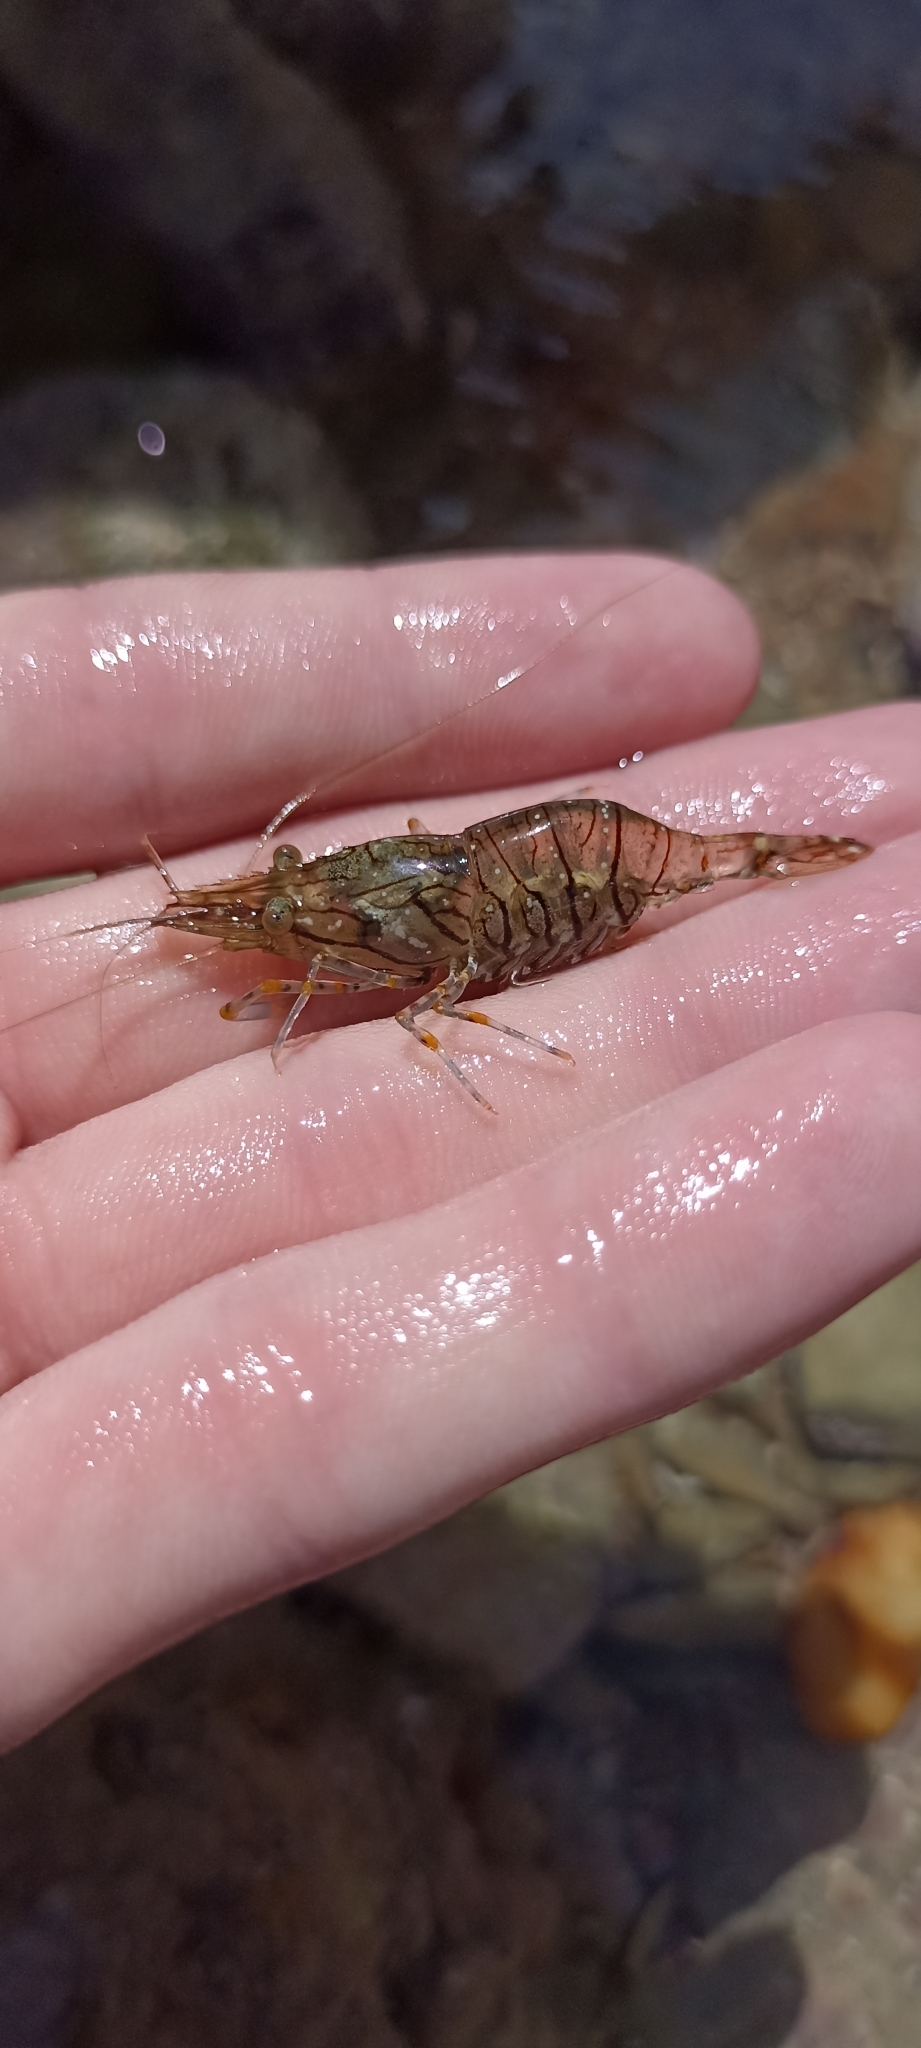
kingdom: Animalia
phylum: Arthropoda
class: Malacostraca
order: Decapoda
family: Palaemonidae
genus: Palaemon
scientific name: Palaemon elegans
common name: Grass prawm
